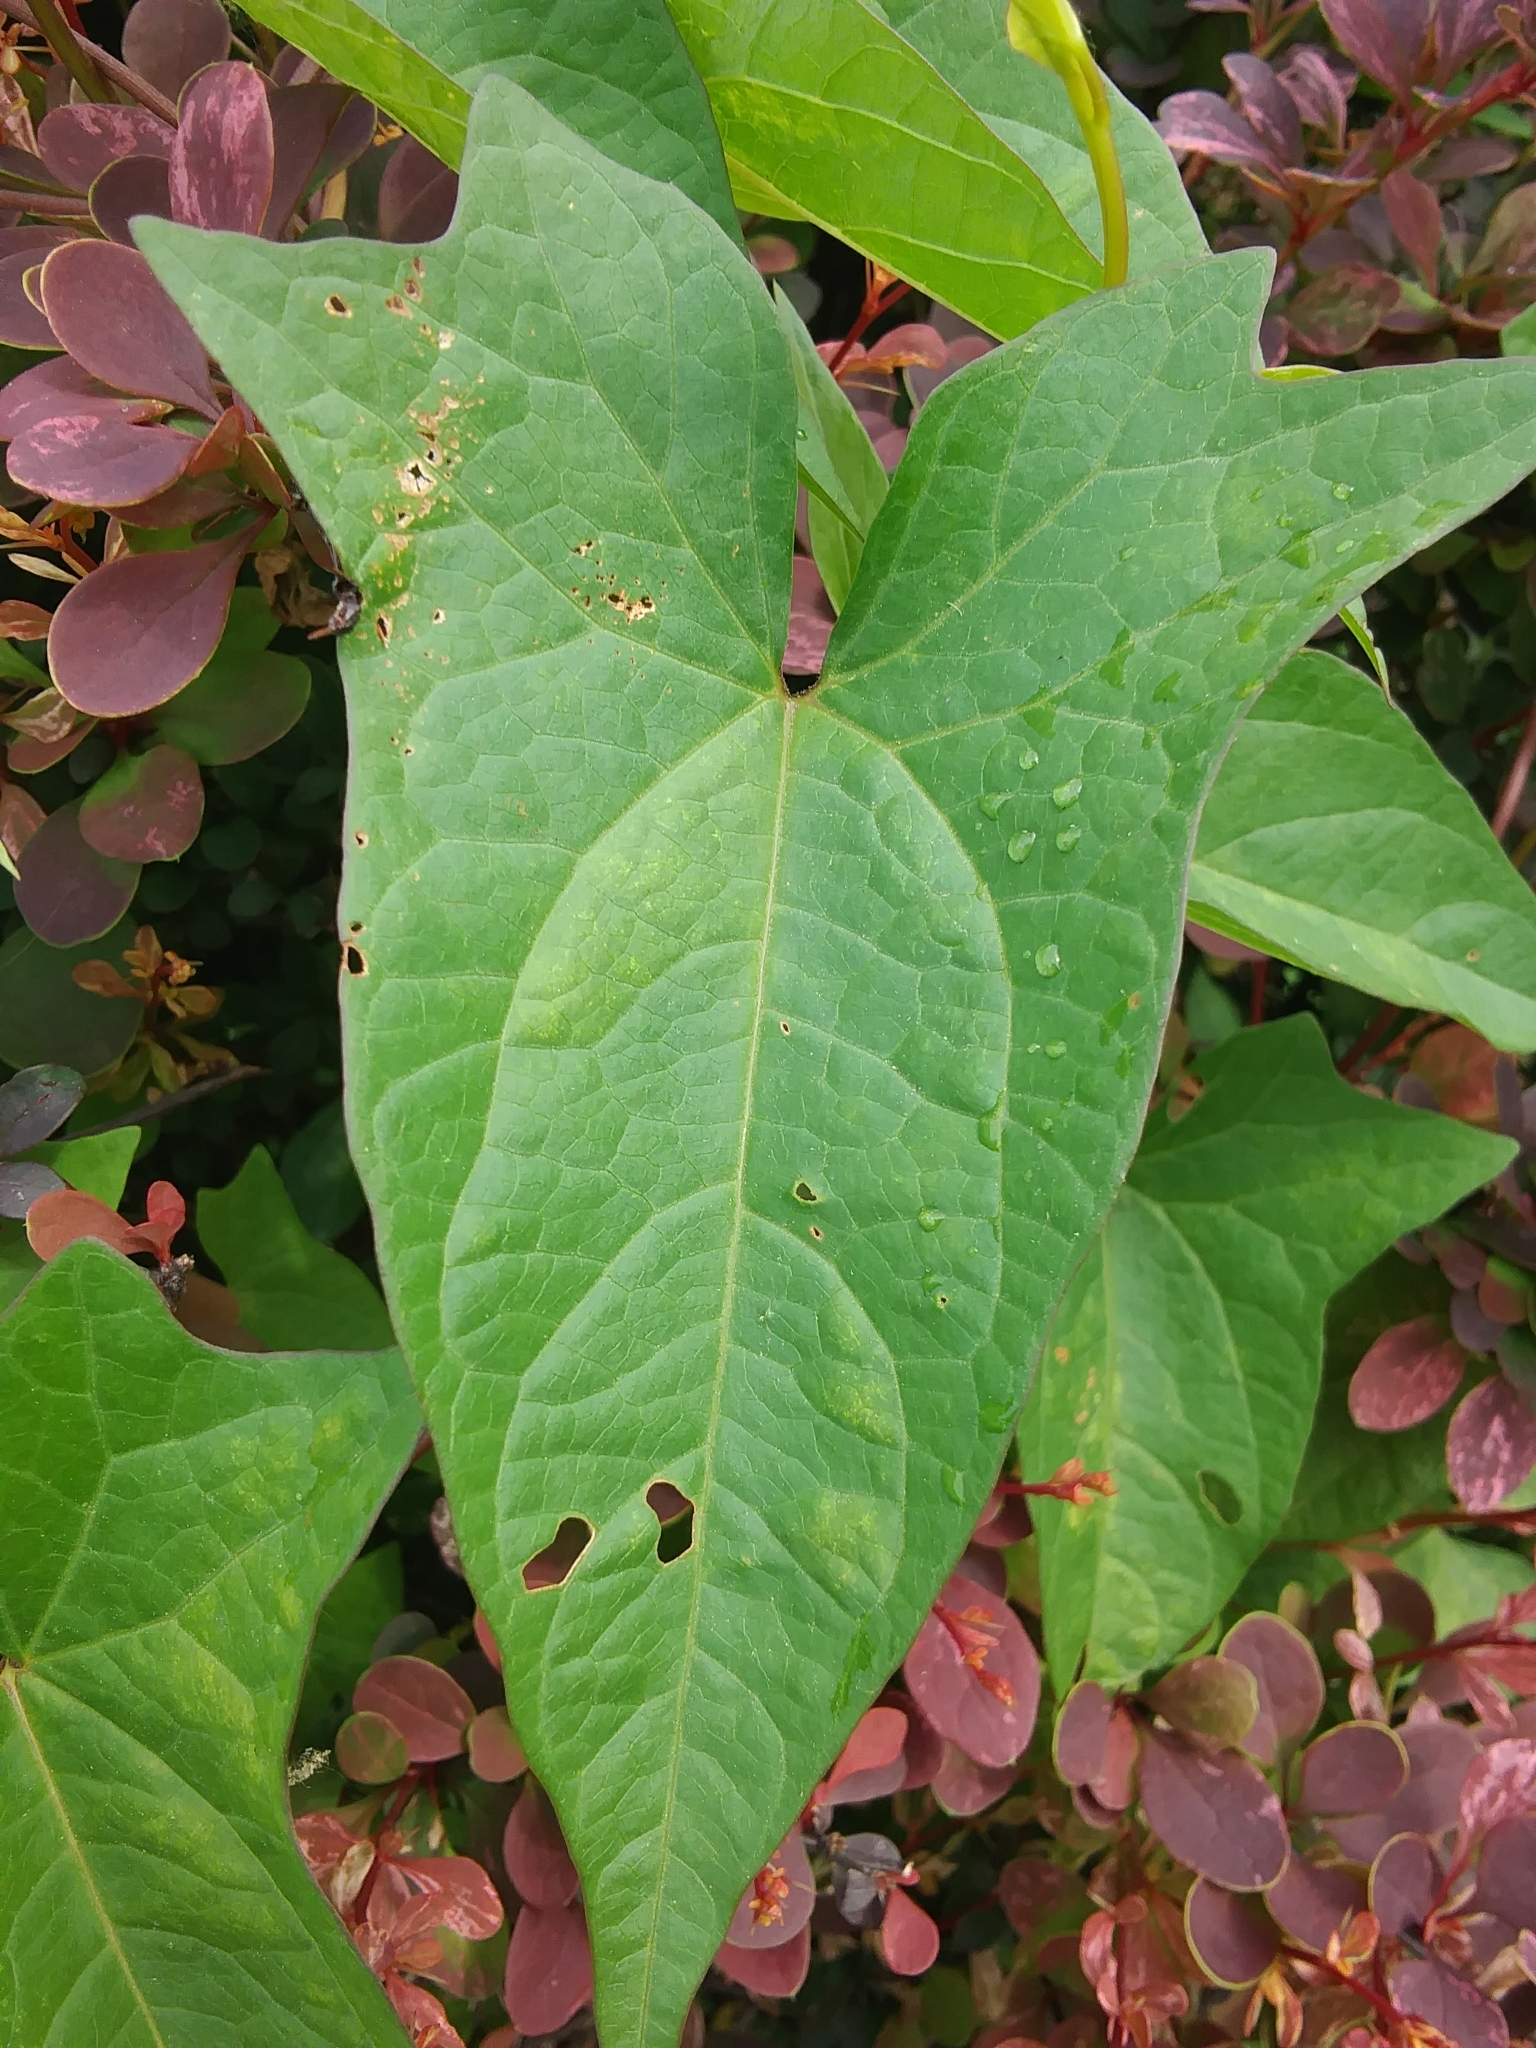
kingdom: Plantae
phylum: Tracheophyta
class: Magnoliopsida
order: Solanales
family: Convolvulaceae
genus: Calystegia
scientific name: Calystegia sepium
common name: Hedge bindweed
